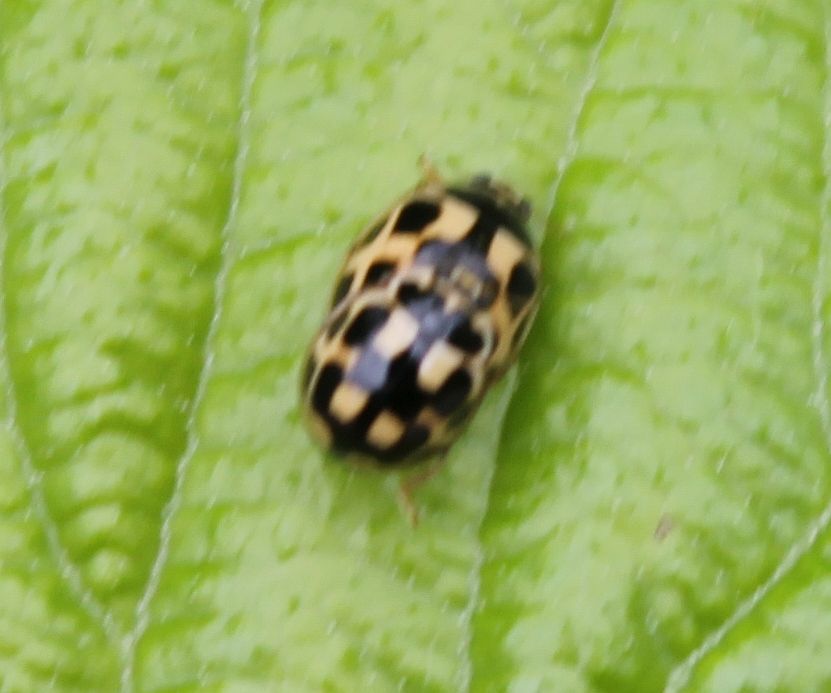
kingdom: Animalia
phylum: Arthropoda
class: Insecta
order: Coleoptera
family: Coccinellidae
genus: Propylaea
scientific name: Propylaea quatuordecimpunctata
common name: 14-spotted ladybird beetle
